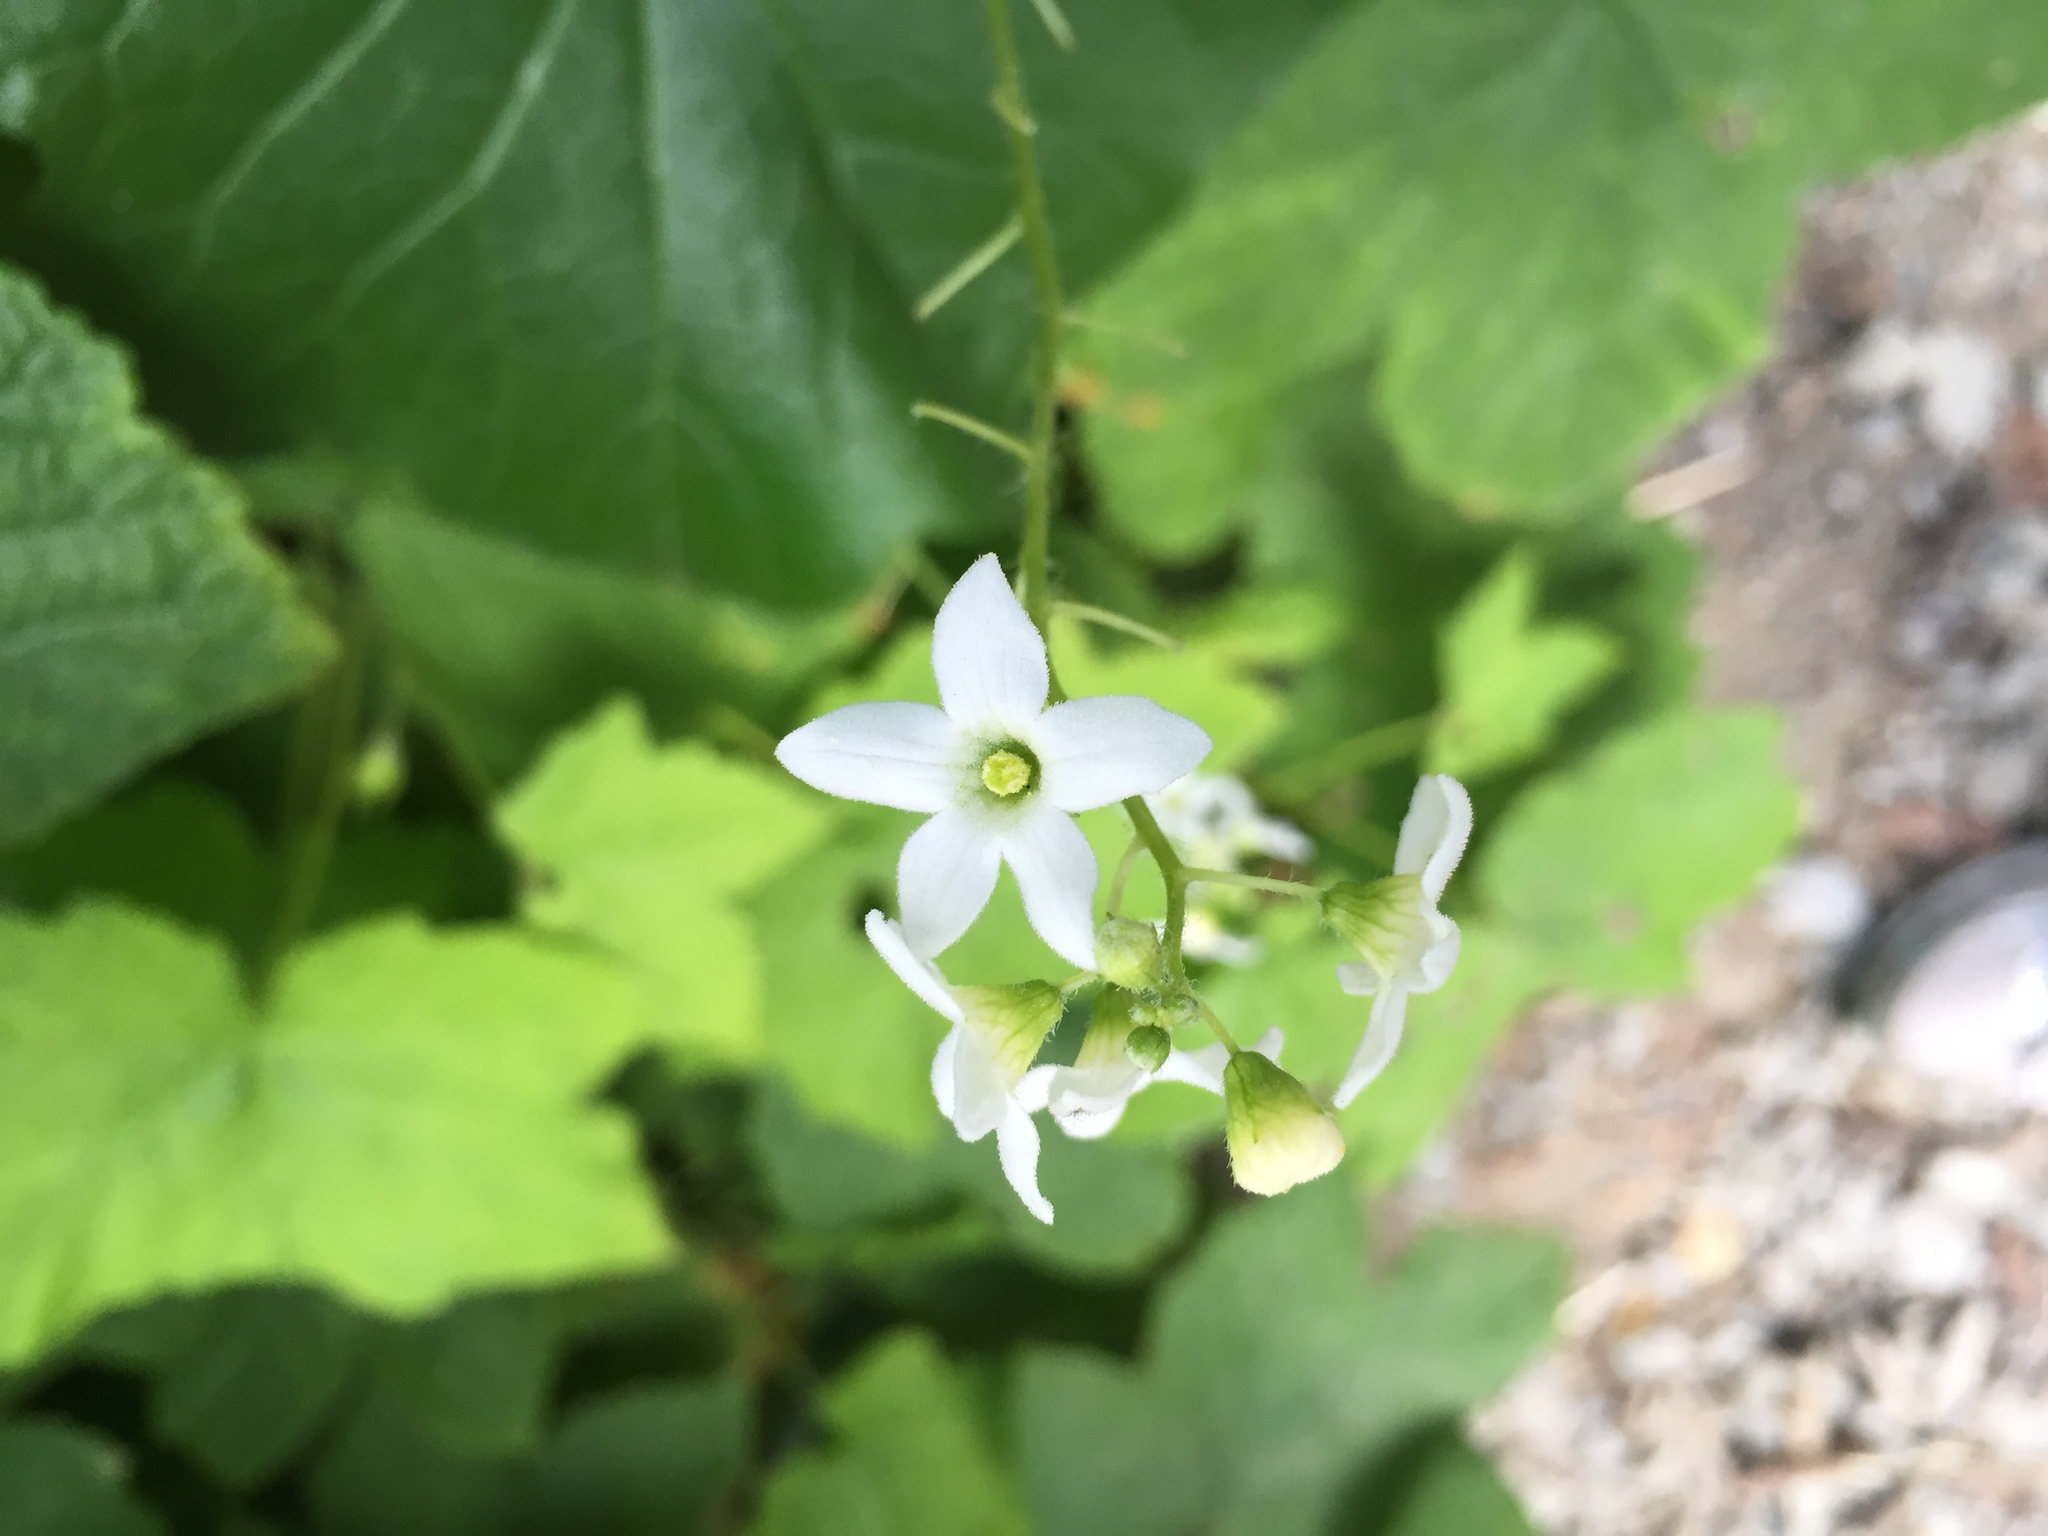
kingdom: Plantae
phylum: Tracheophyta
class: Magnoliopsida
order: Cucurbitales
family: Cucurbitaceae
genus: Marah
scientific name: Marah oregana
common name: Coastal manroot
